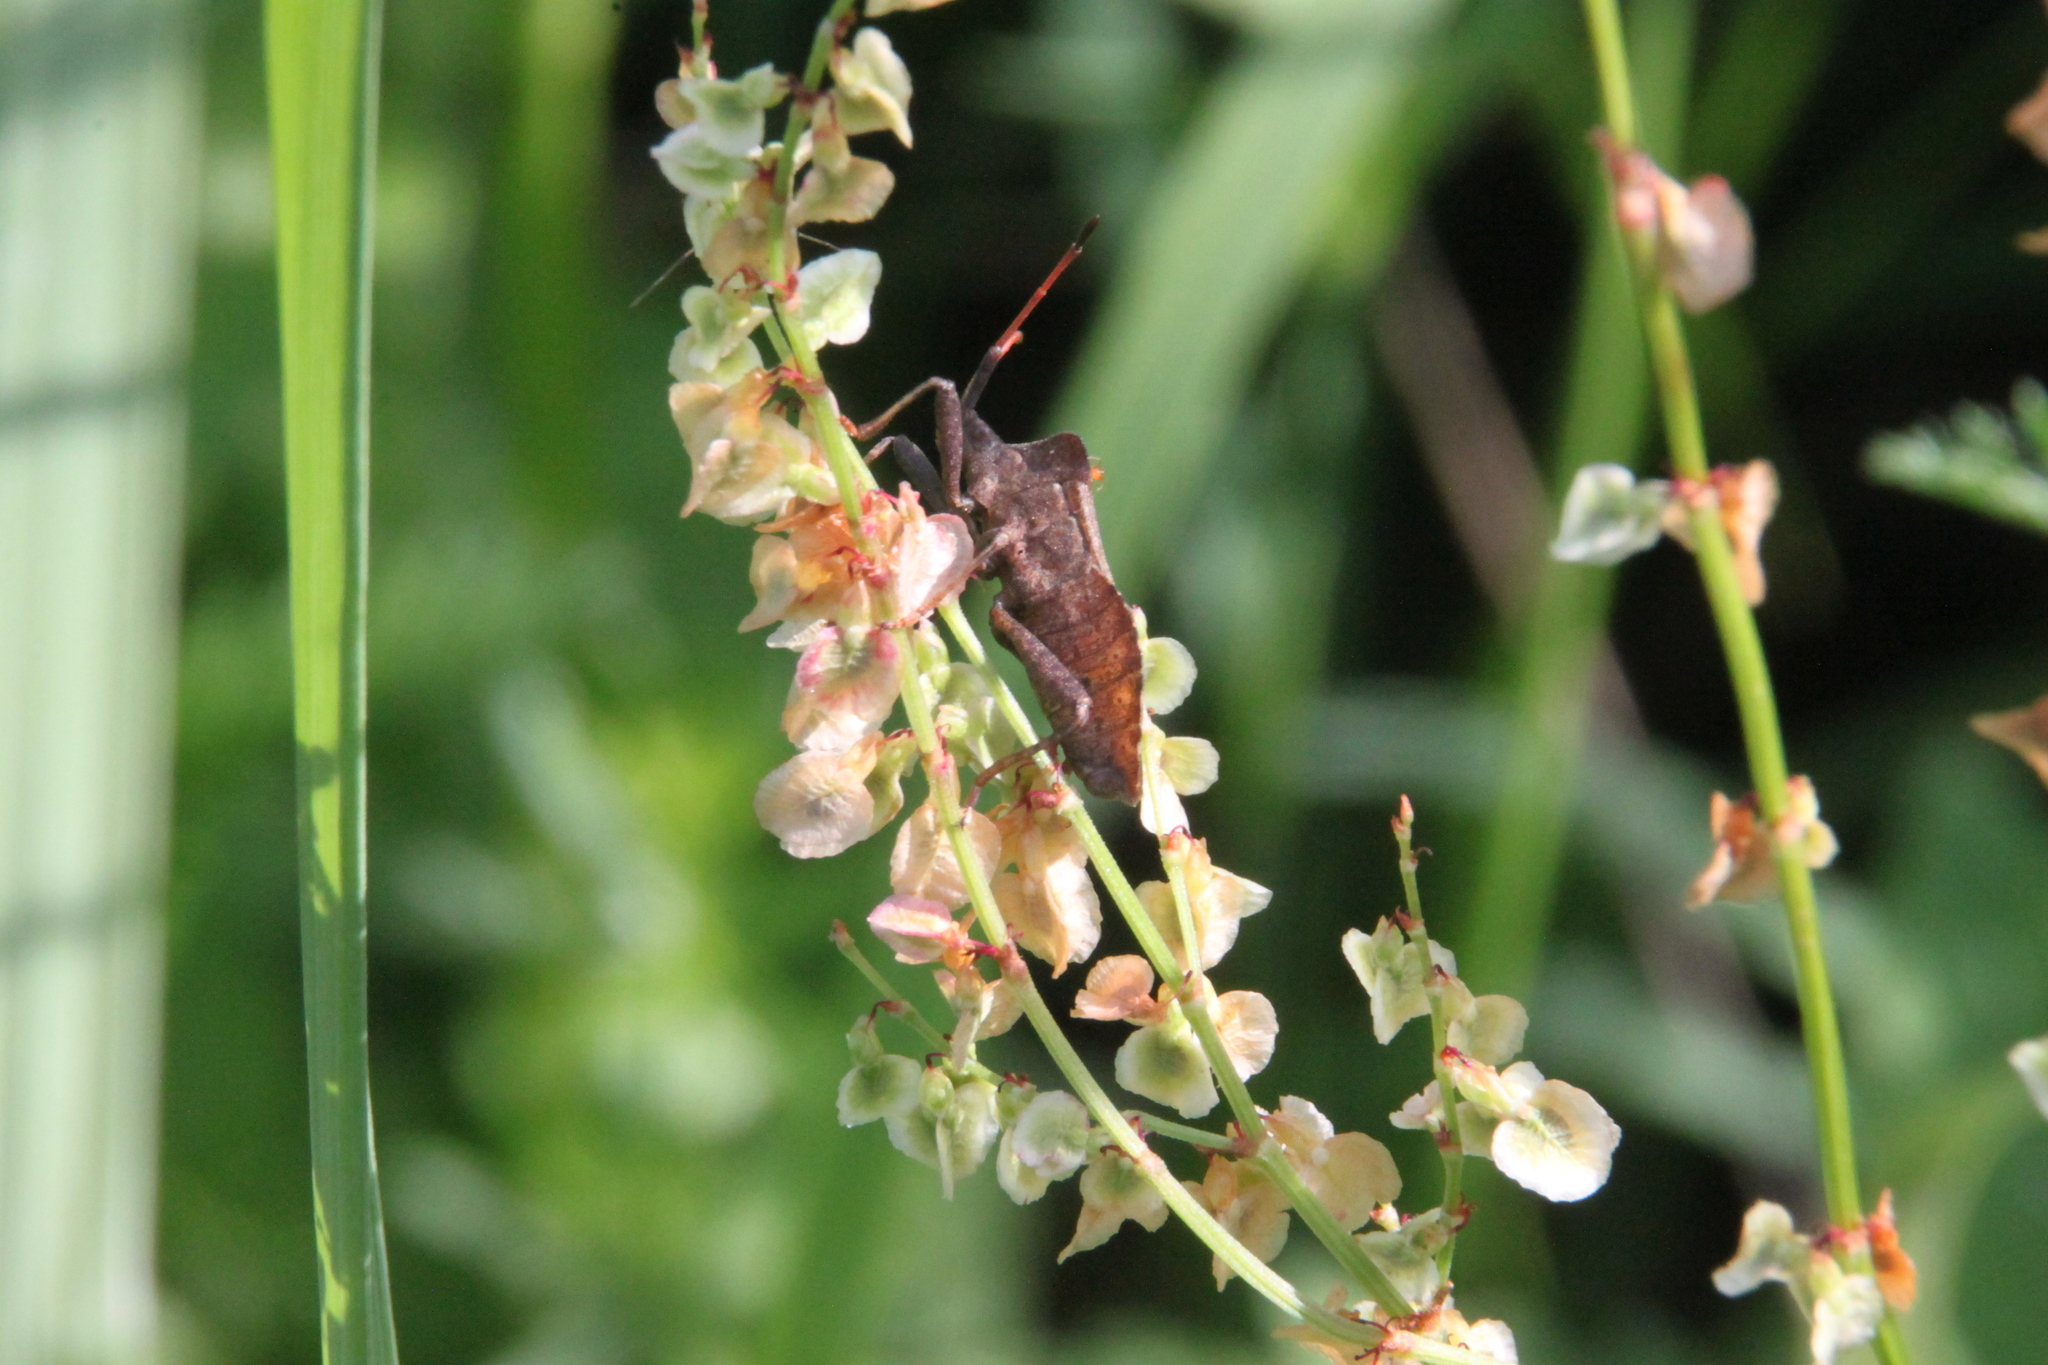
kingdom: Animalia
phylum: Arthropoda
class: Insecta
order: Hemiptera
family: Coreidae
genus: Coreus
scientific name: Coreus marginatus
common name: Dock bug
